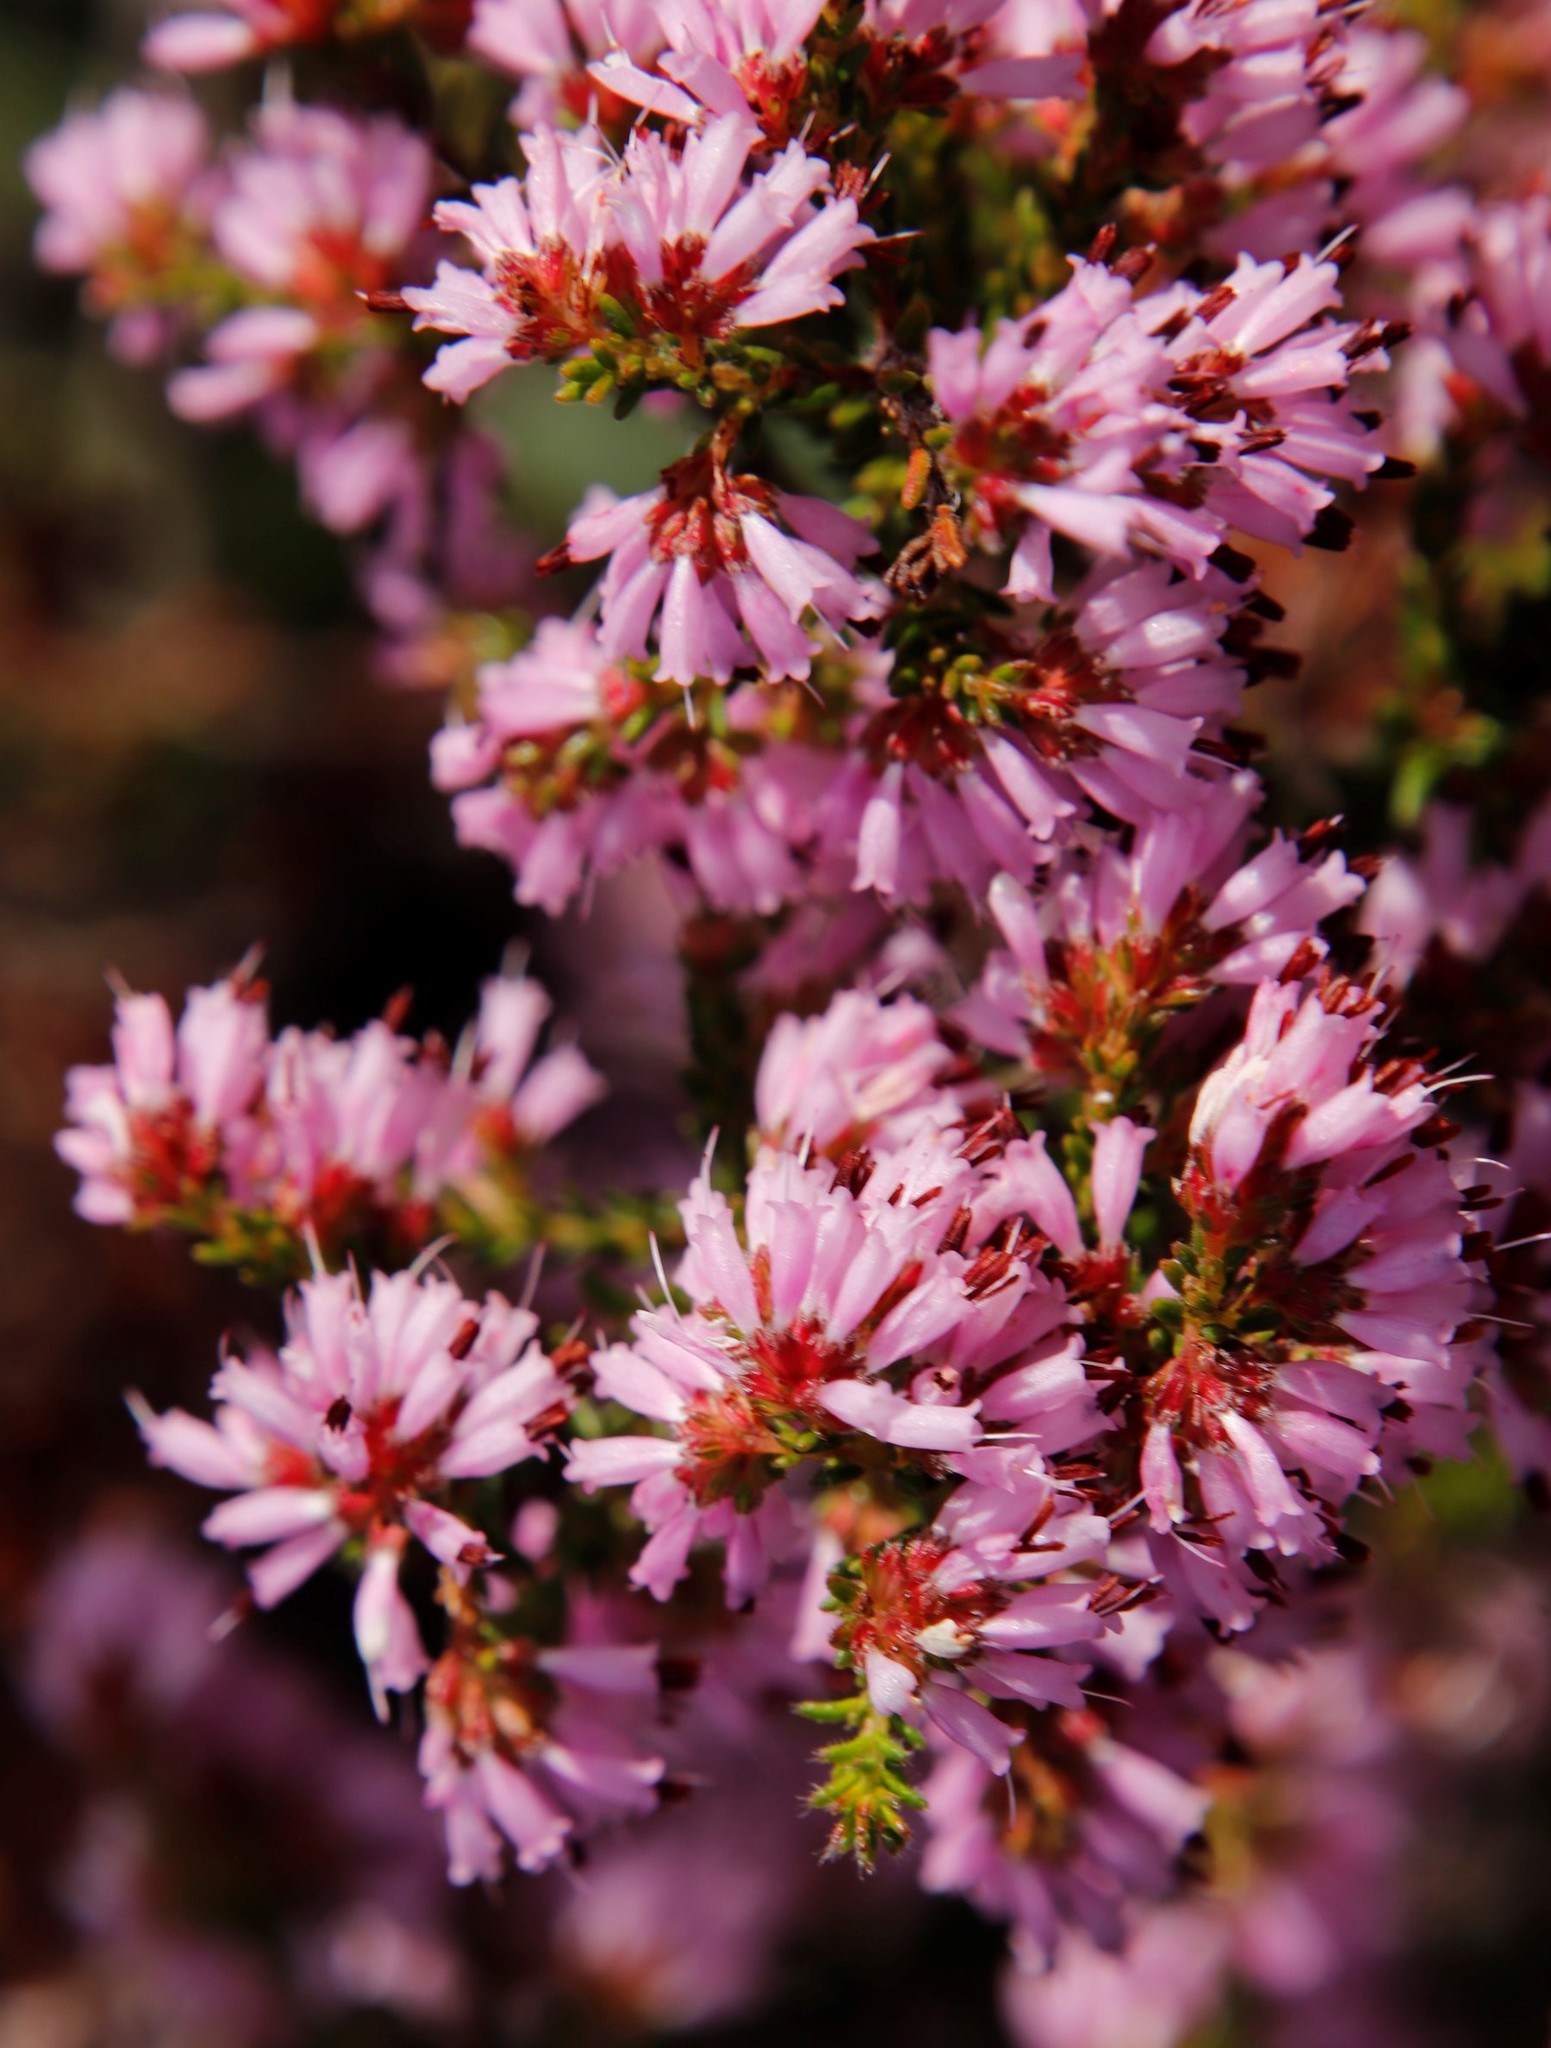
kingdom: Plantae
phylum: Tracheophyta
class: Magnoliopsida
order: Ericales
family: Ericaceae
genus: Erica
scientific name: Erica glabella
